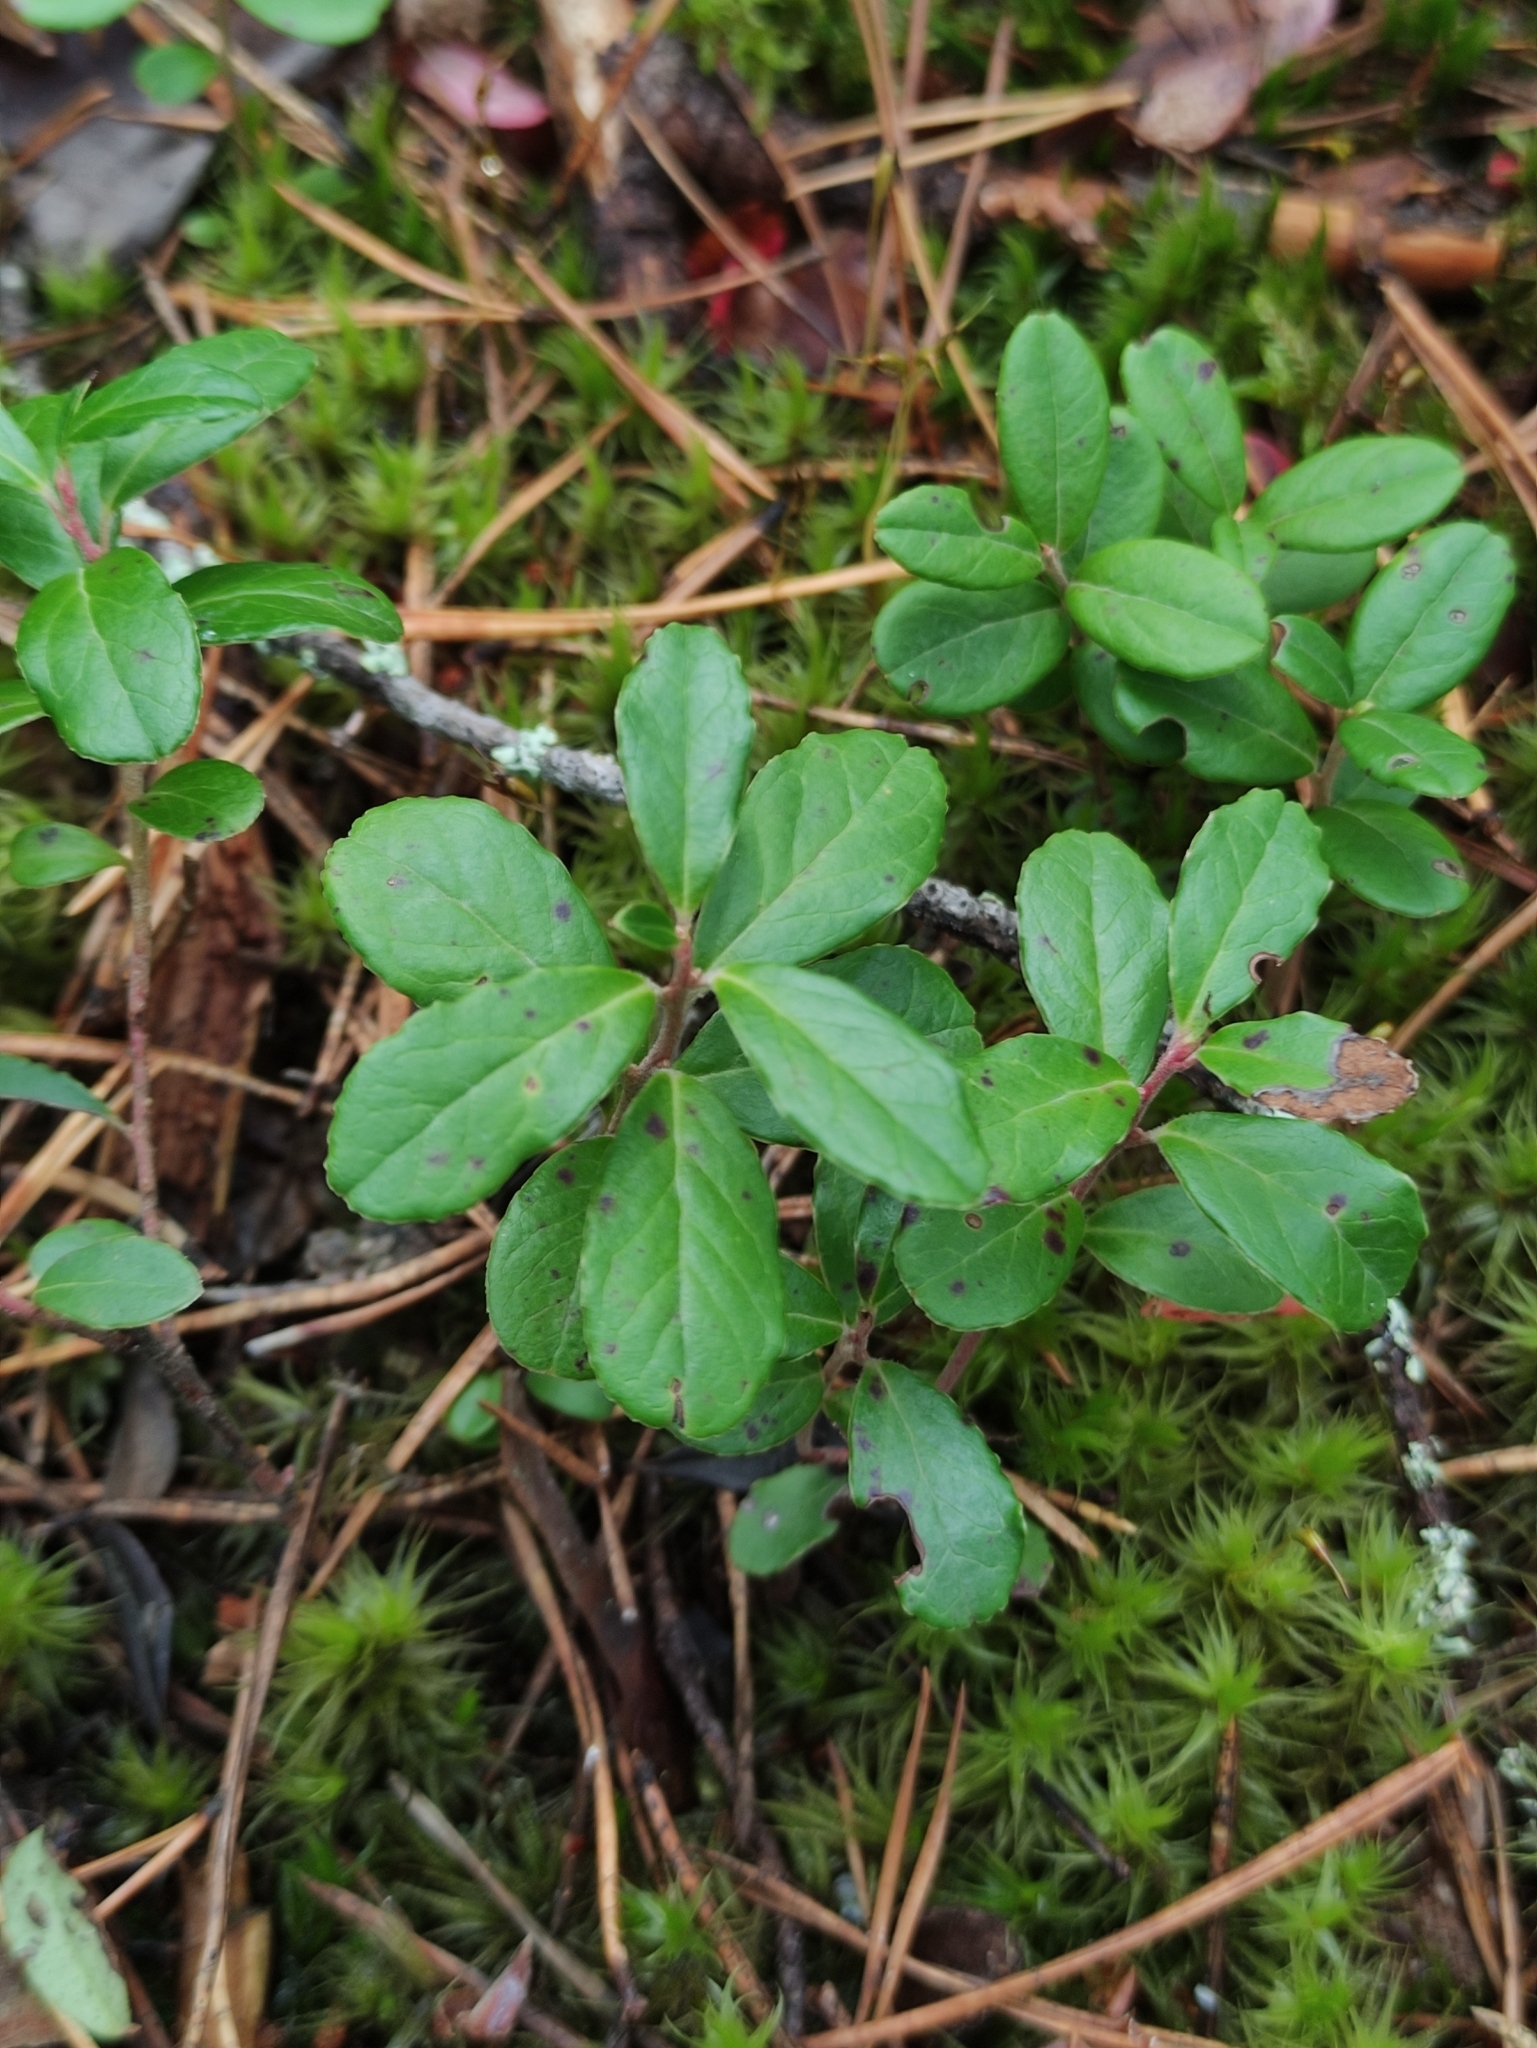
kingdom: Plantae
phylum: Tracheophyta
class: Magnoliopsida
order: Ericales
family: Ericaceae
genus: Vaccinium
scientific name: Vaccinium vitis-idaea
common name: Cowberry
